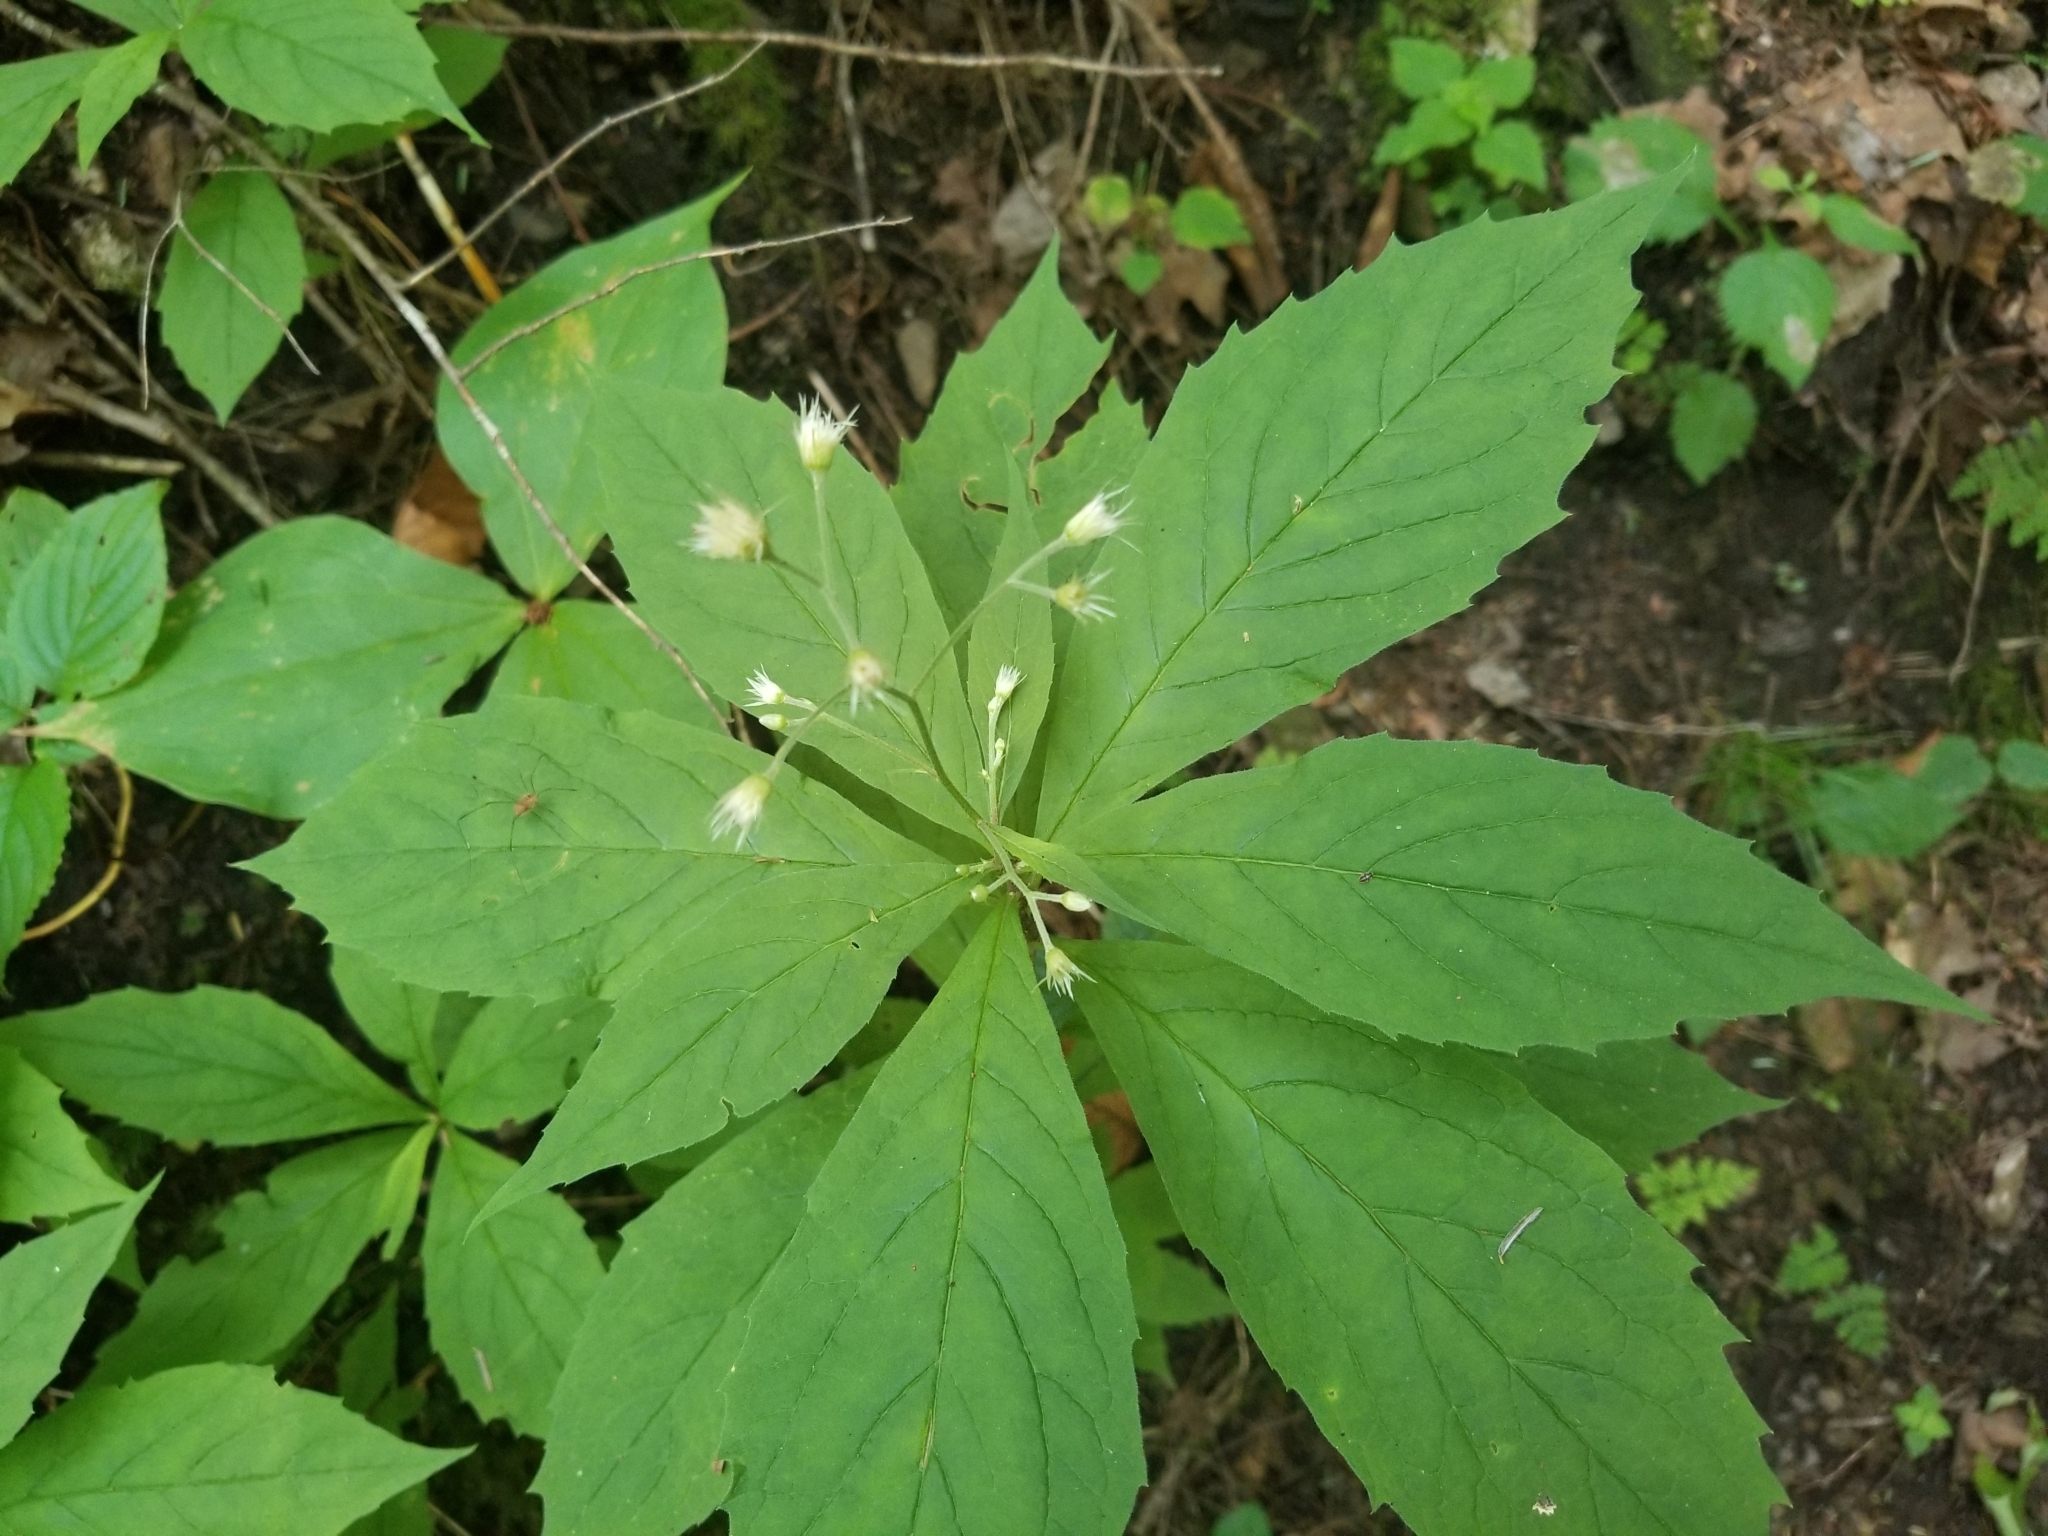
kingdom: Plantae
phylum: Tracheophyta
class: Magnoliopsida
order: Asterales
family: Asteraceae
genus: Oclemena
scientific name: Oclemena acuminata
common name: Mountain aster
